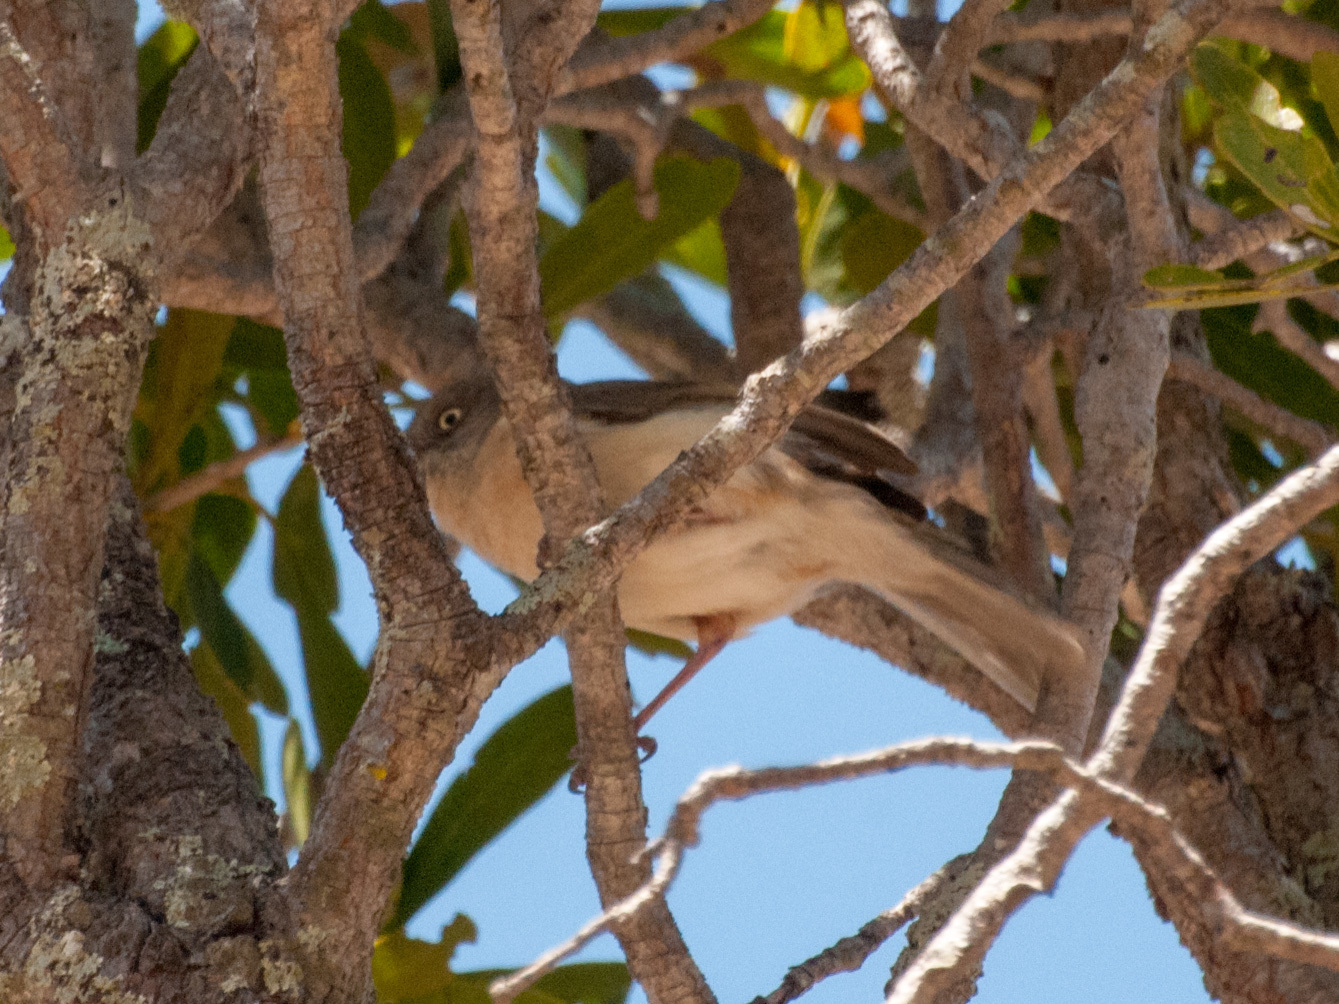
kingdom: Animalia
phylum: Chordata
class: Aves
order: Passeriformes
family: Vangidae
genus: Newtonia
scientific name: Newtonia brunneicauda
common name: Common newtonia
